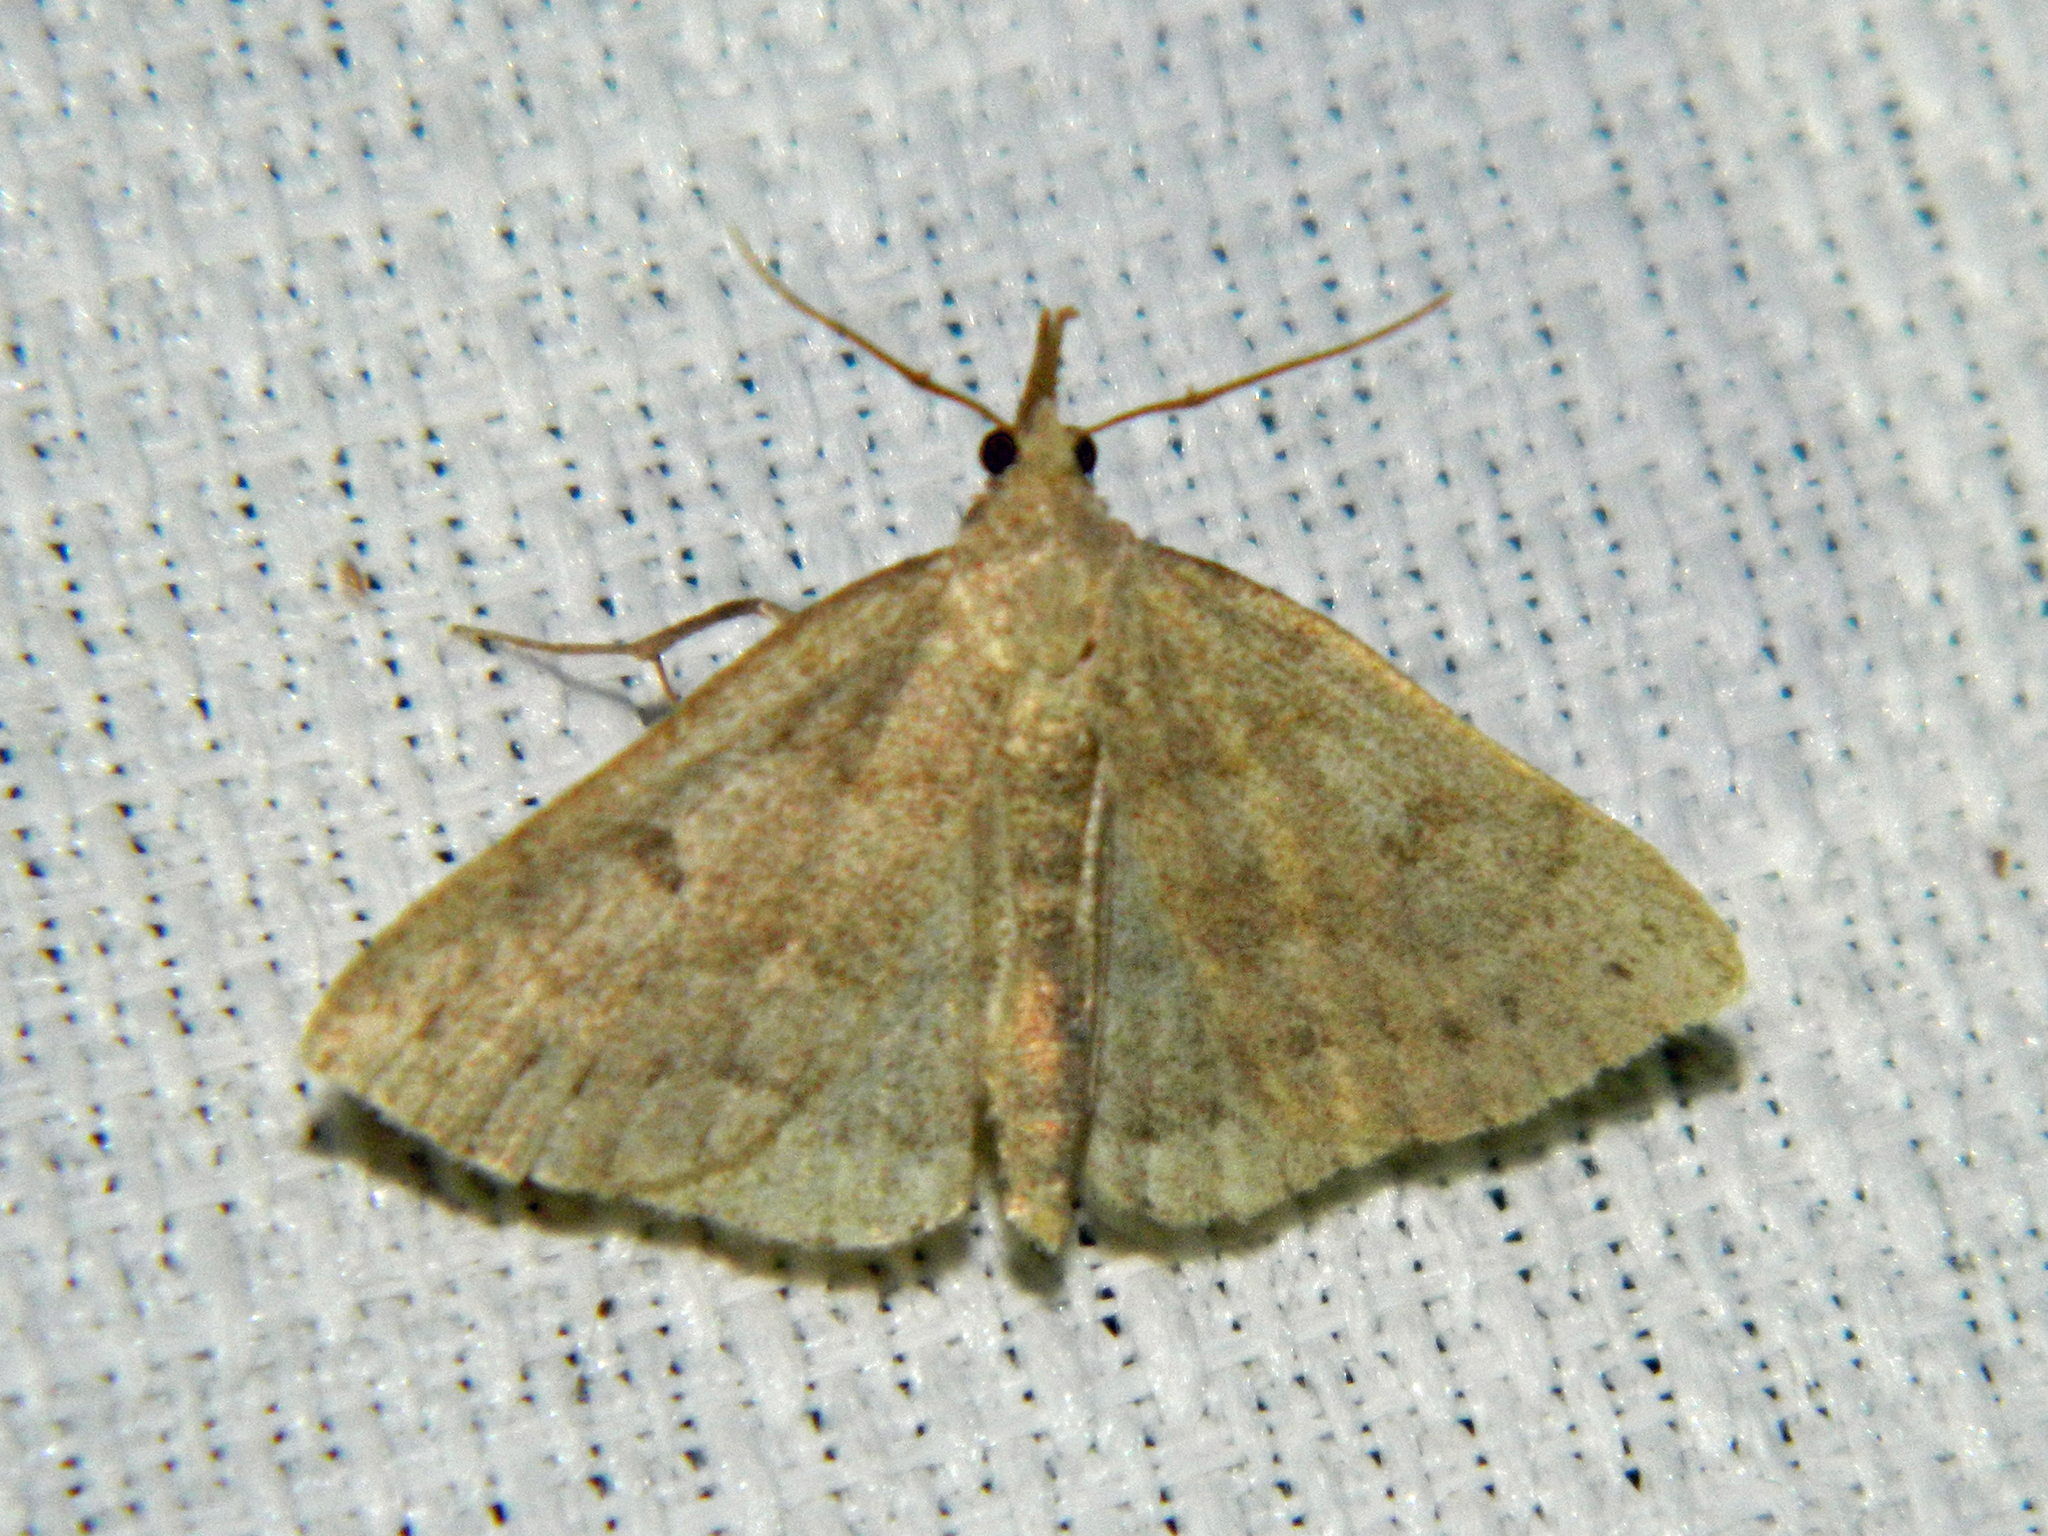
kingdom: Animalia
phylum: Arthropoda
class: Insecta
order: Lepidoptera
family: Erebidae
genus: Macrochilo
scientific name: Macrochilo morbidalis
